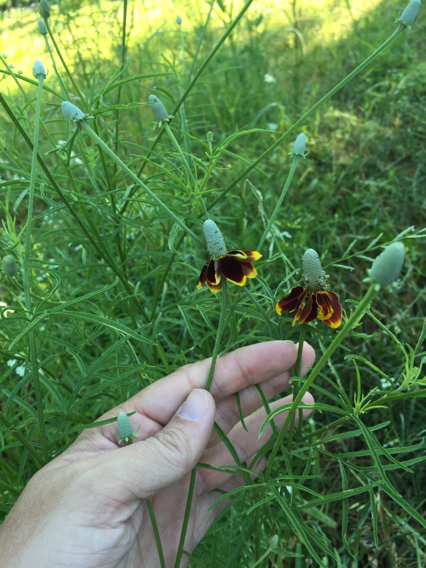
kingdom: Plantae
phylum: Tracheophyta
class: Magnoliopsida
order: Asterales
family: Asteraceae
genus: Ratibida
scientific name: Ratibida columnifera
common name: Prairie coneflower
